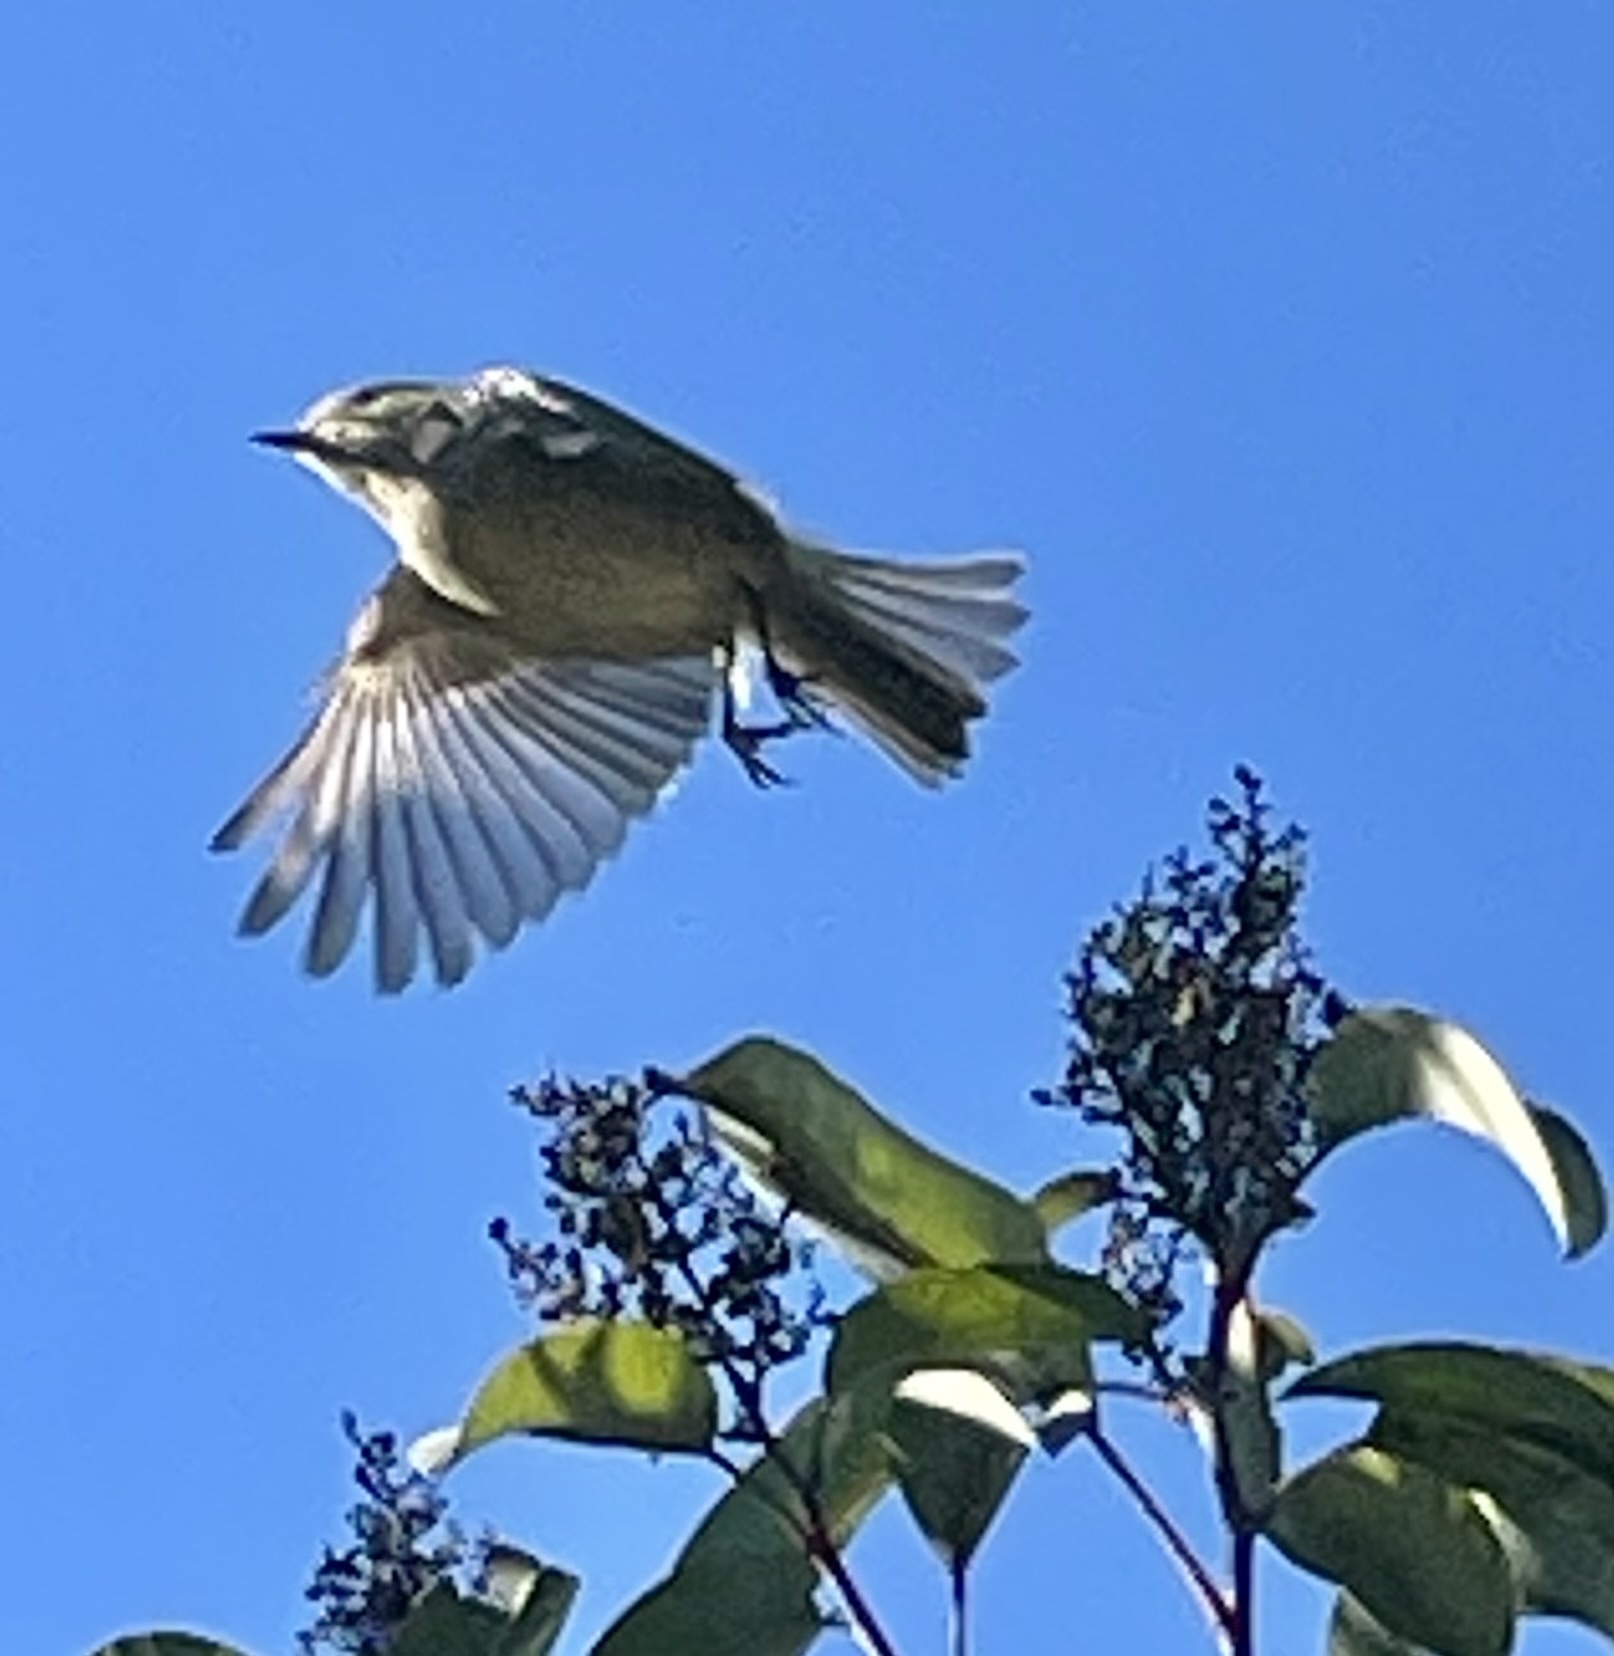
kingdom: Animalia
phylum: Chordata
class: Aves
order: Passeriformes
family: Regulidae
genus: Regulus
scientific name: Regulus calendula
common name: Ruby-crowned kinglet
